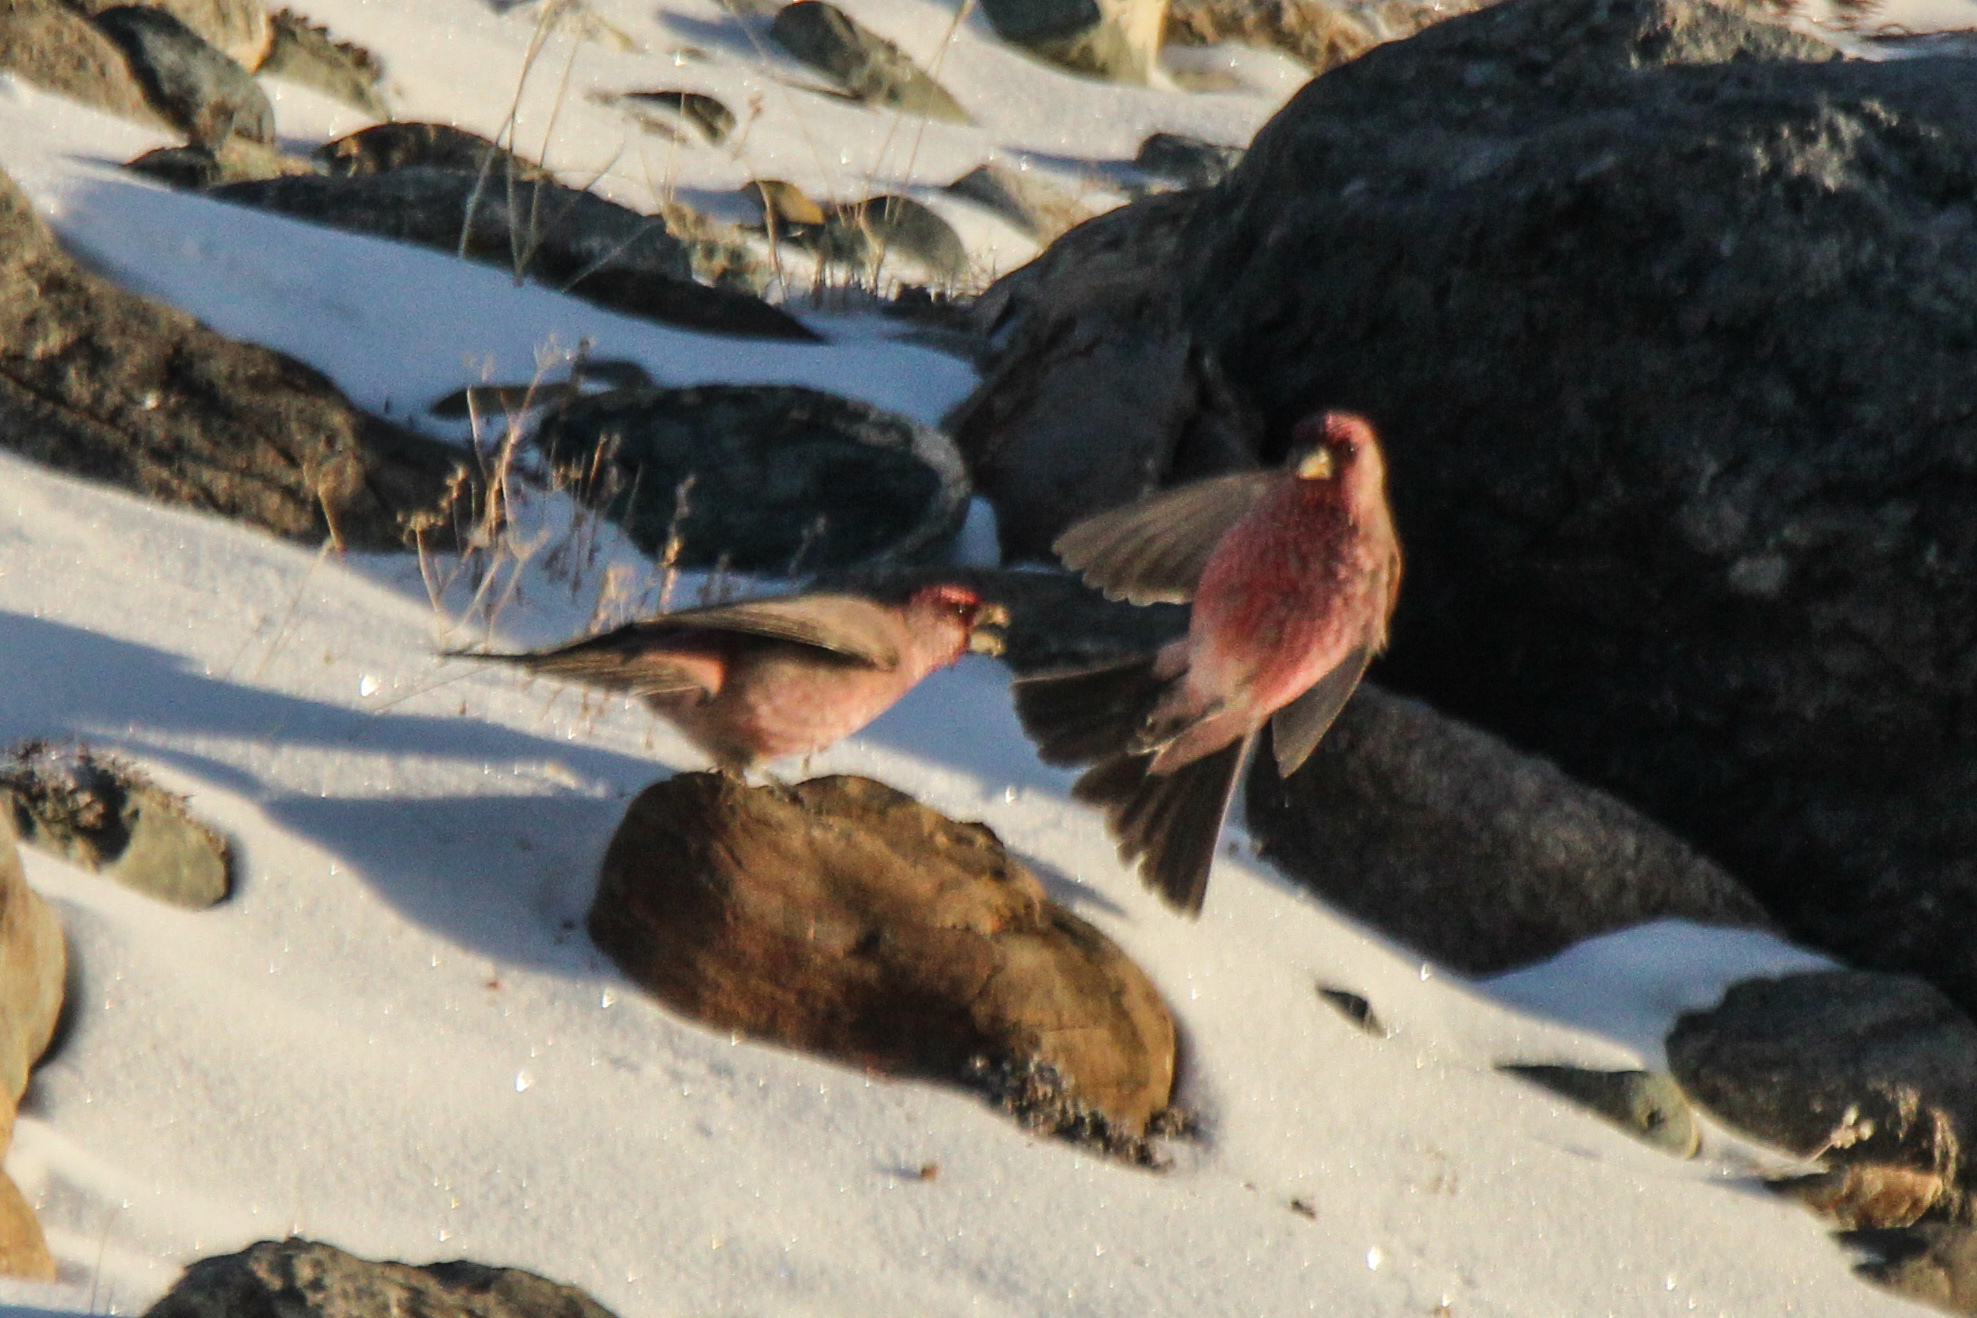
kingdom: Animalia
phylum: Chordata
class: Aves
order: Passeriformes
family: Fringillidae
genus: Carpodacus
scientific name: Carpodacus rubicilla
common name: Great rosefinch
